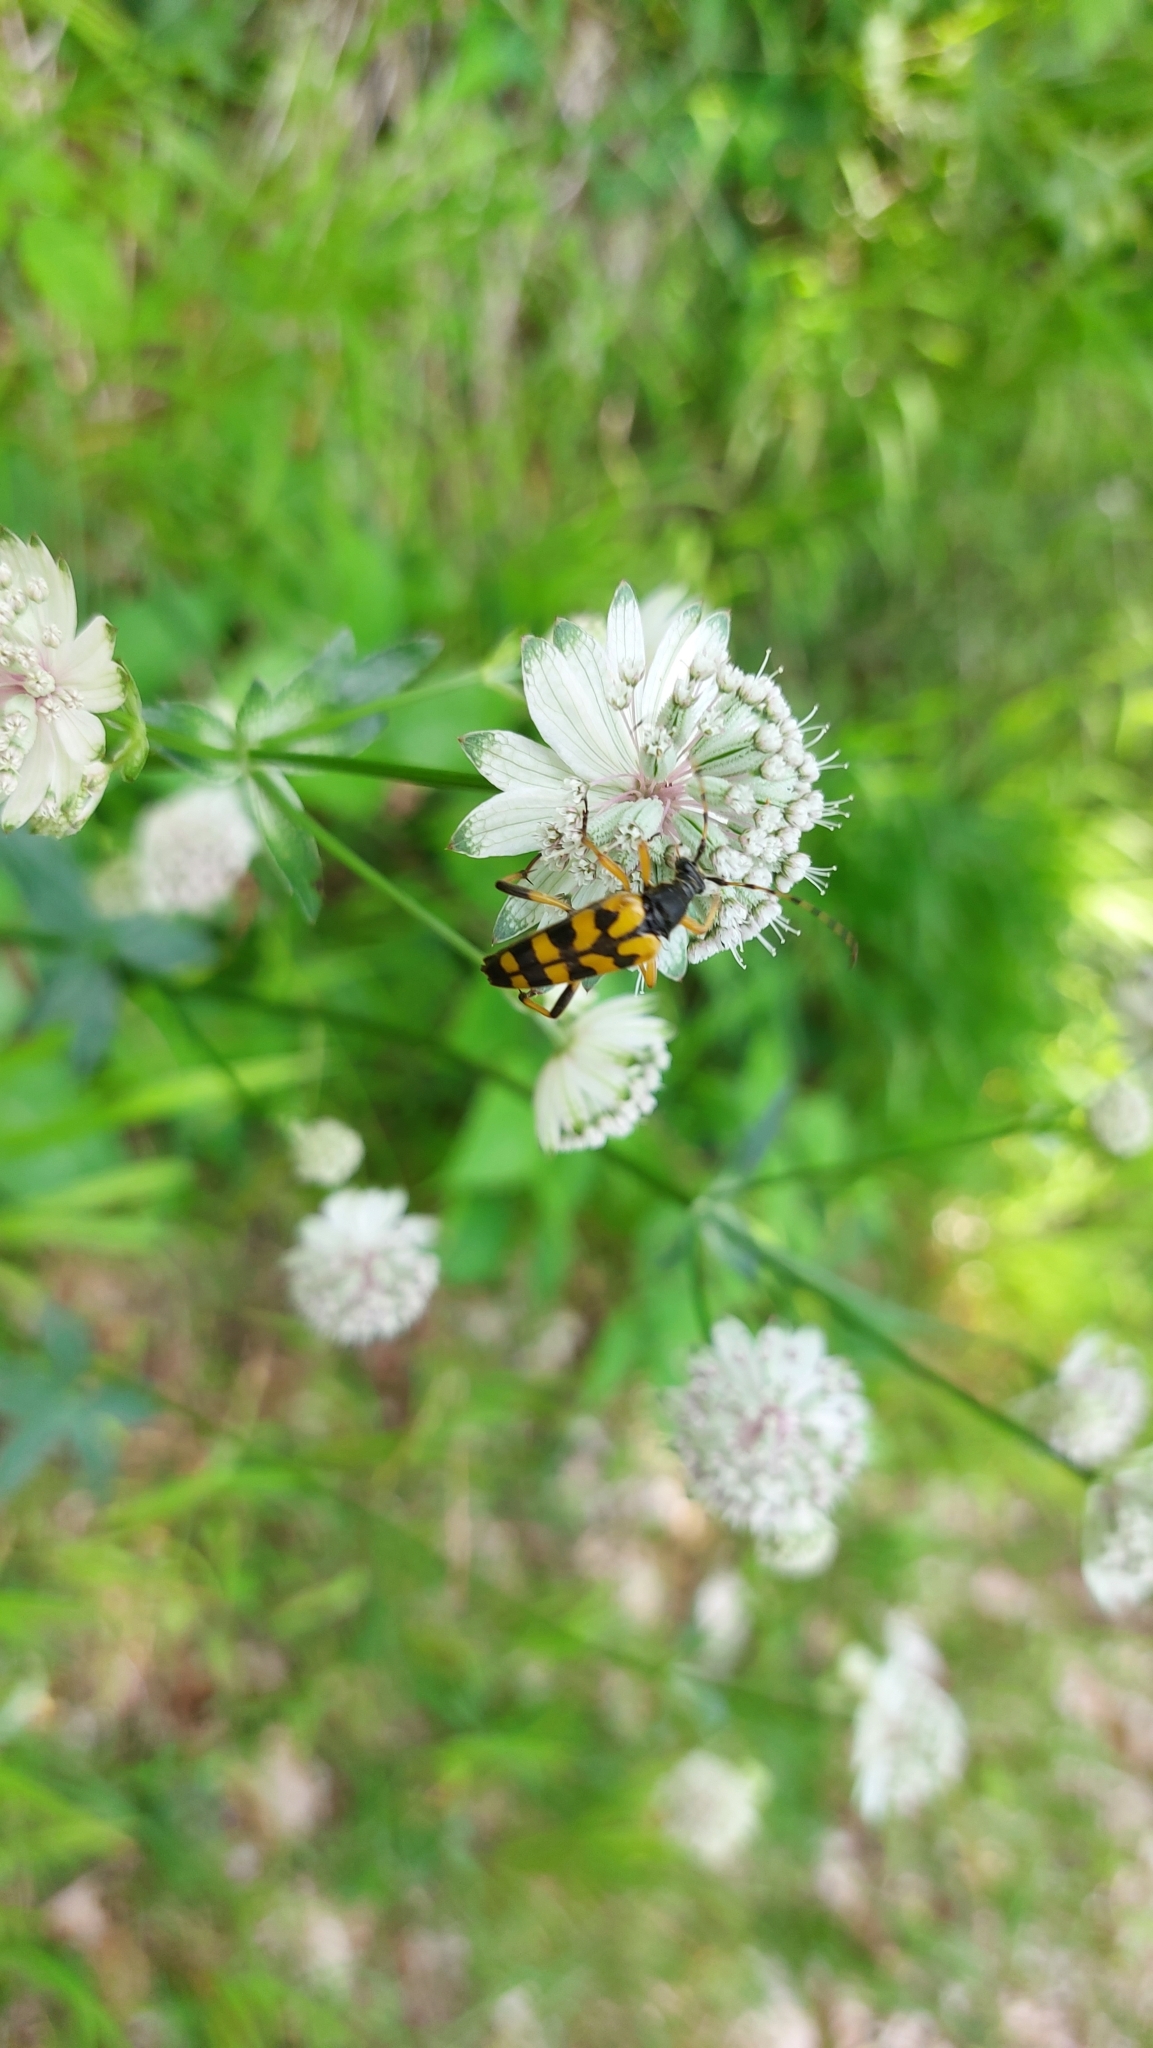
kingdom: Animalia
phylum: Arthropoda
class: Insecta
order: Coleoptera
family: Cerambycidae
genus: Rutpela
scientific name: Rutpela maculata
